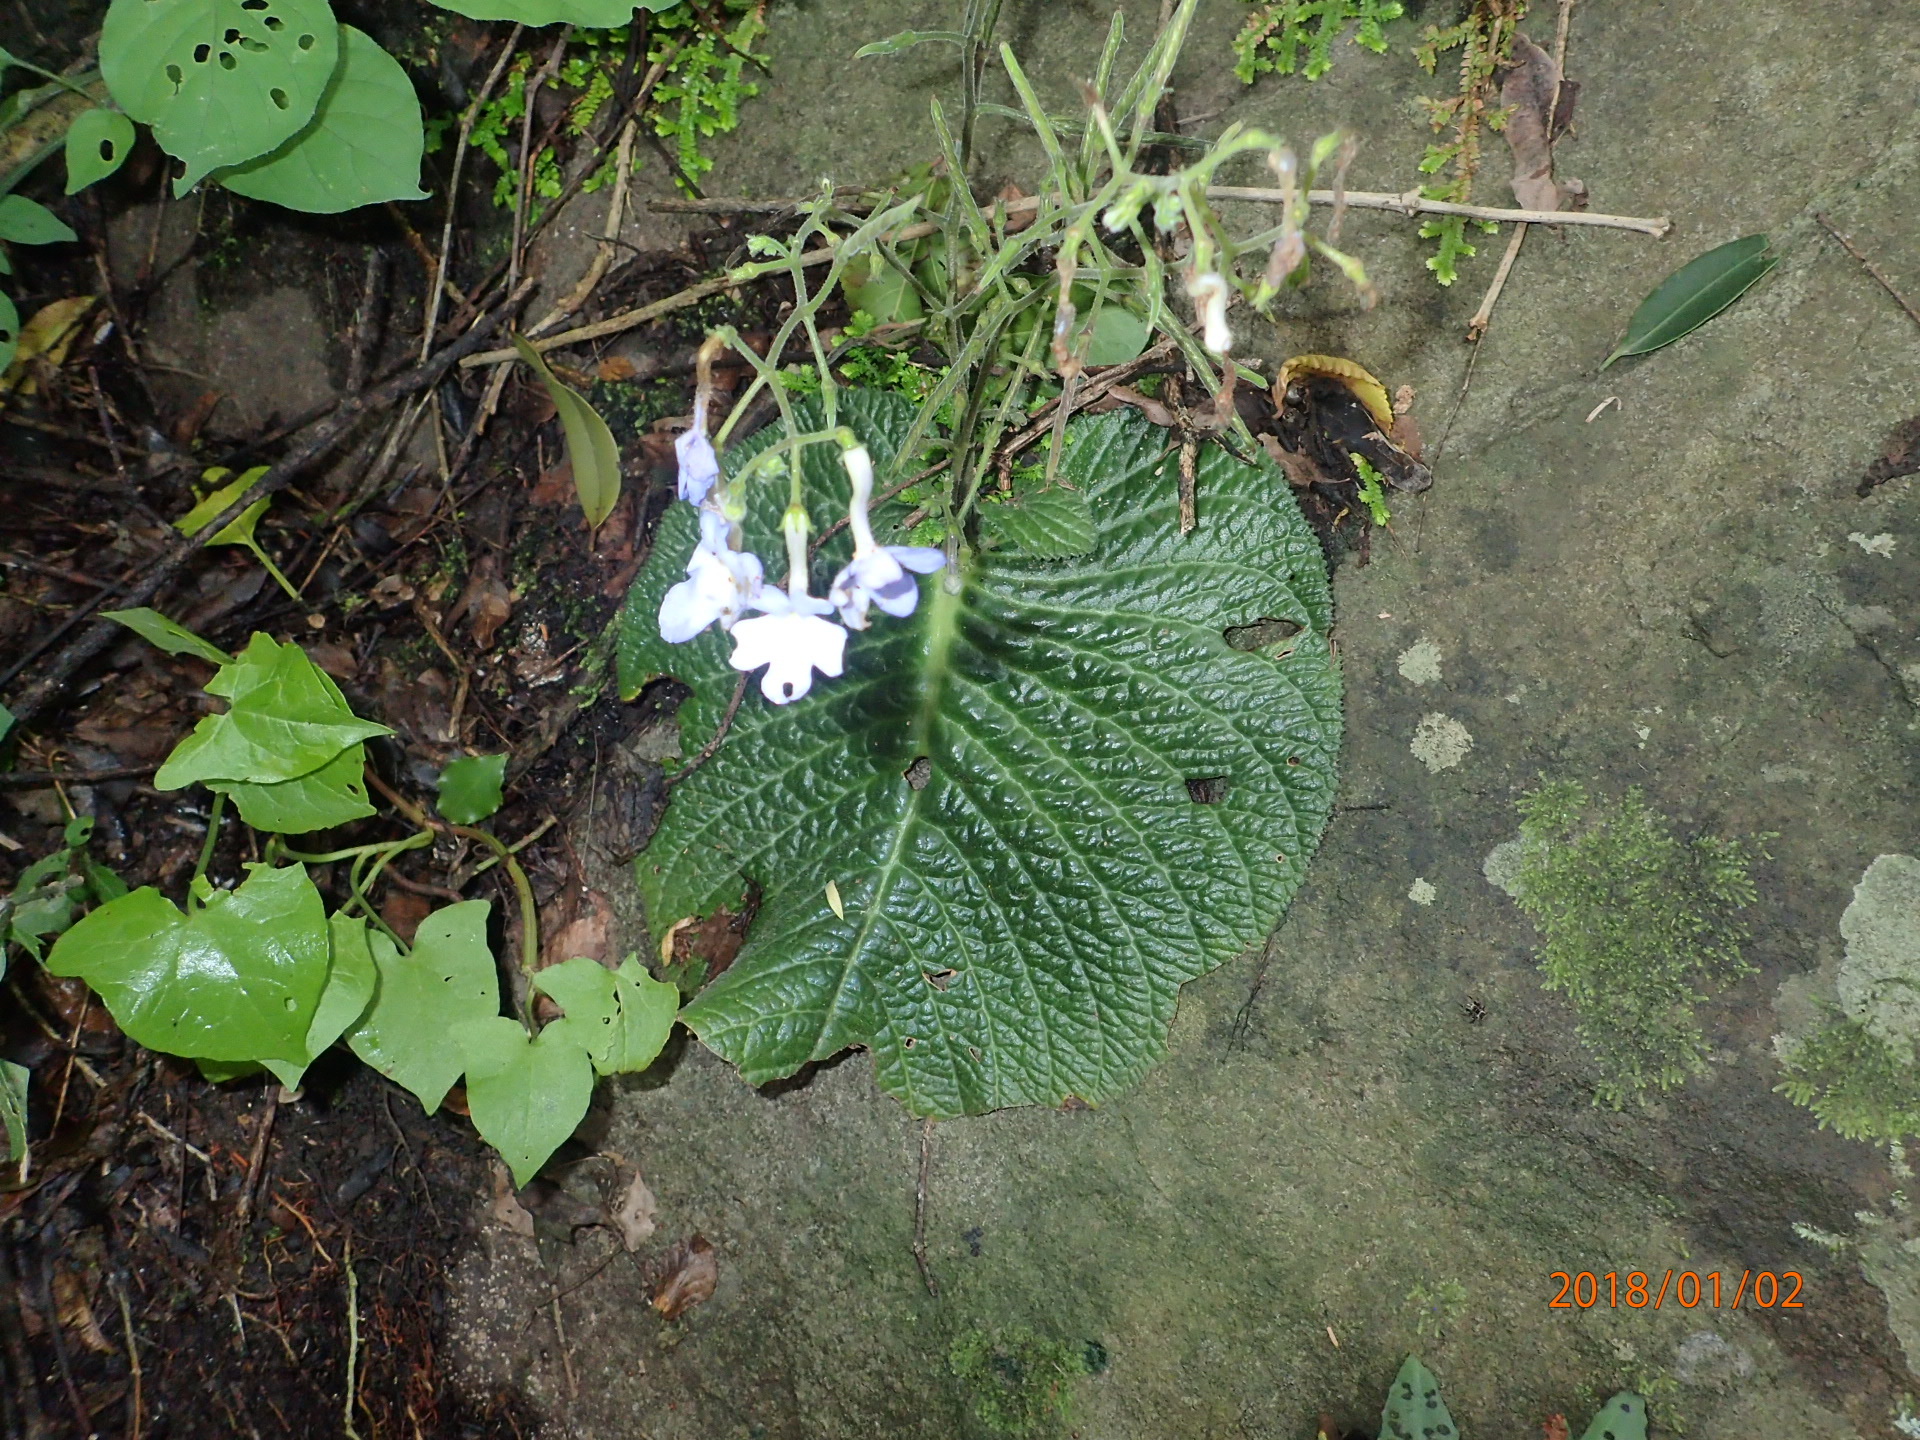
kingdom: Plantae
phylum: Tracheophyta
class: Magnoliopsida
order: Lamiales
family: Gesneriaceae
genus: Streptocarpus
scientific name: Streptocarpus polyanthus
